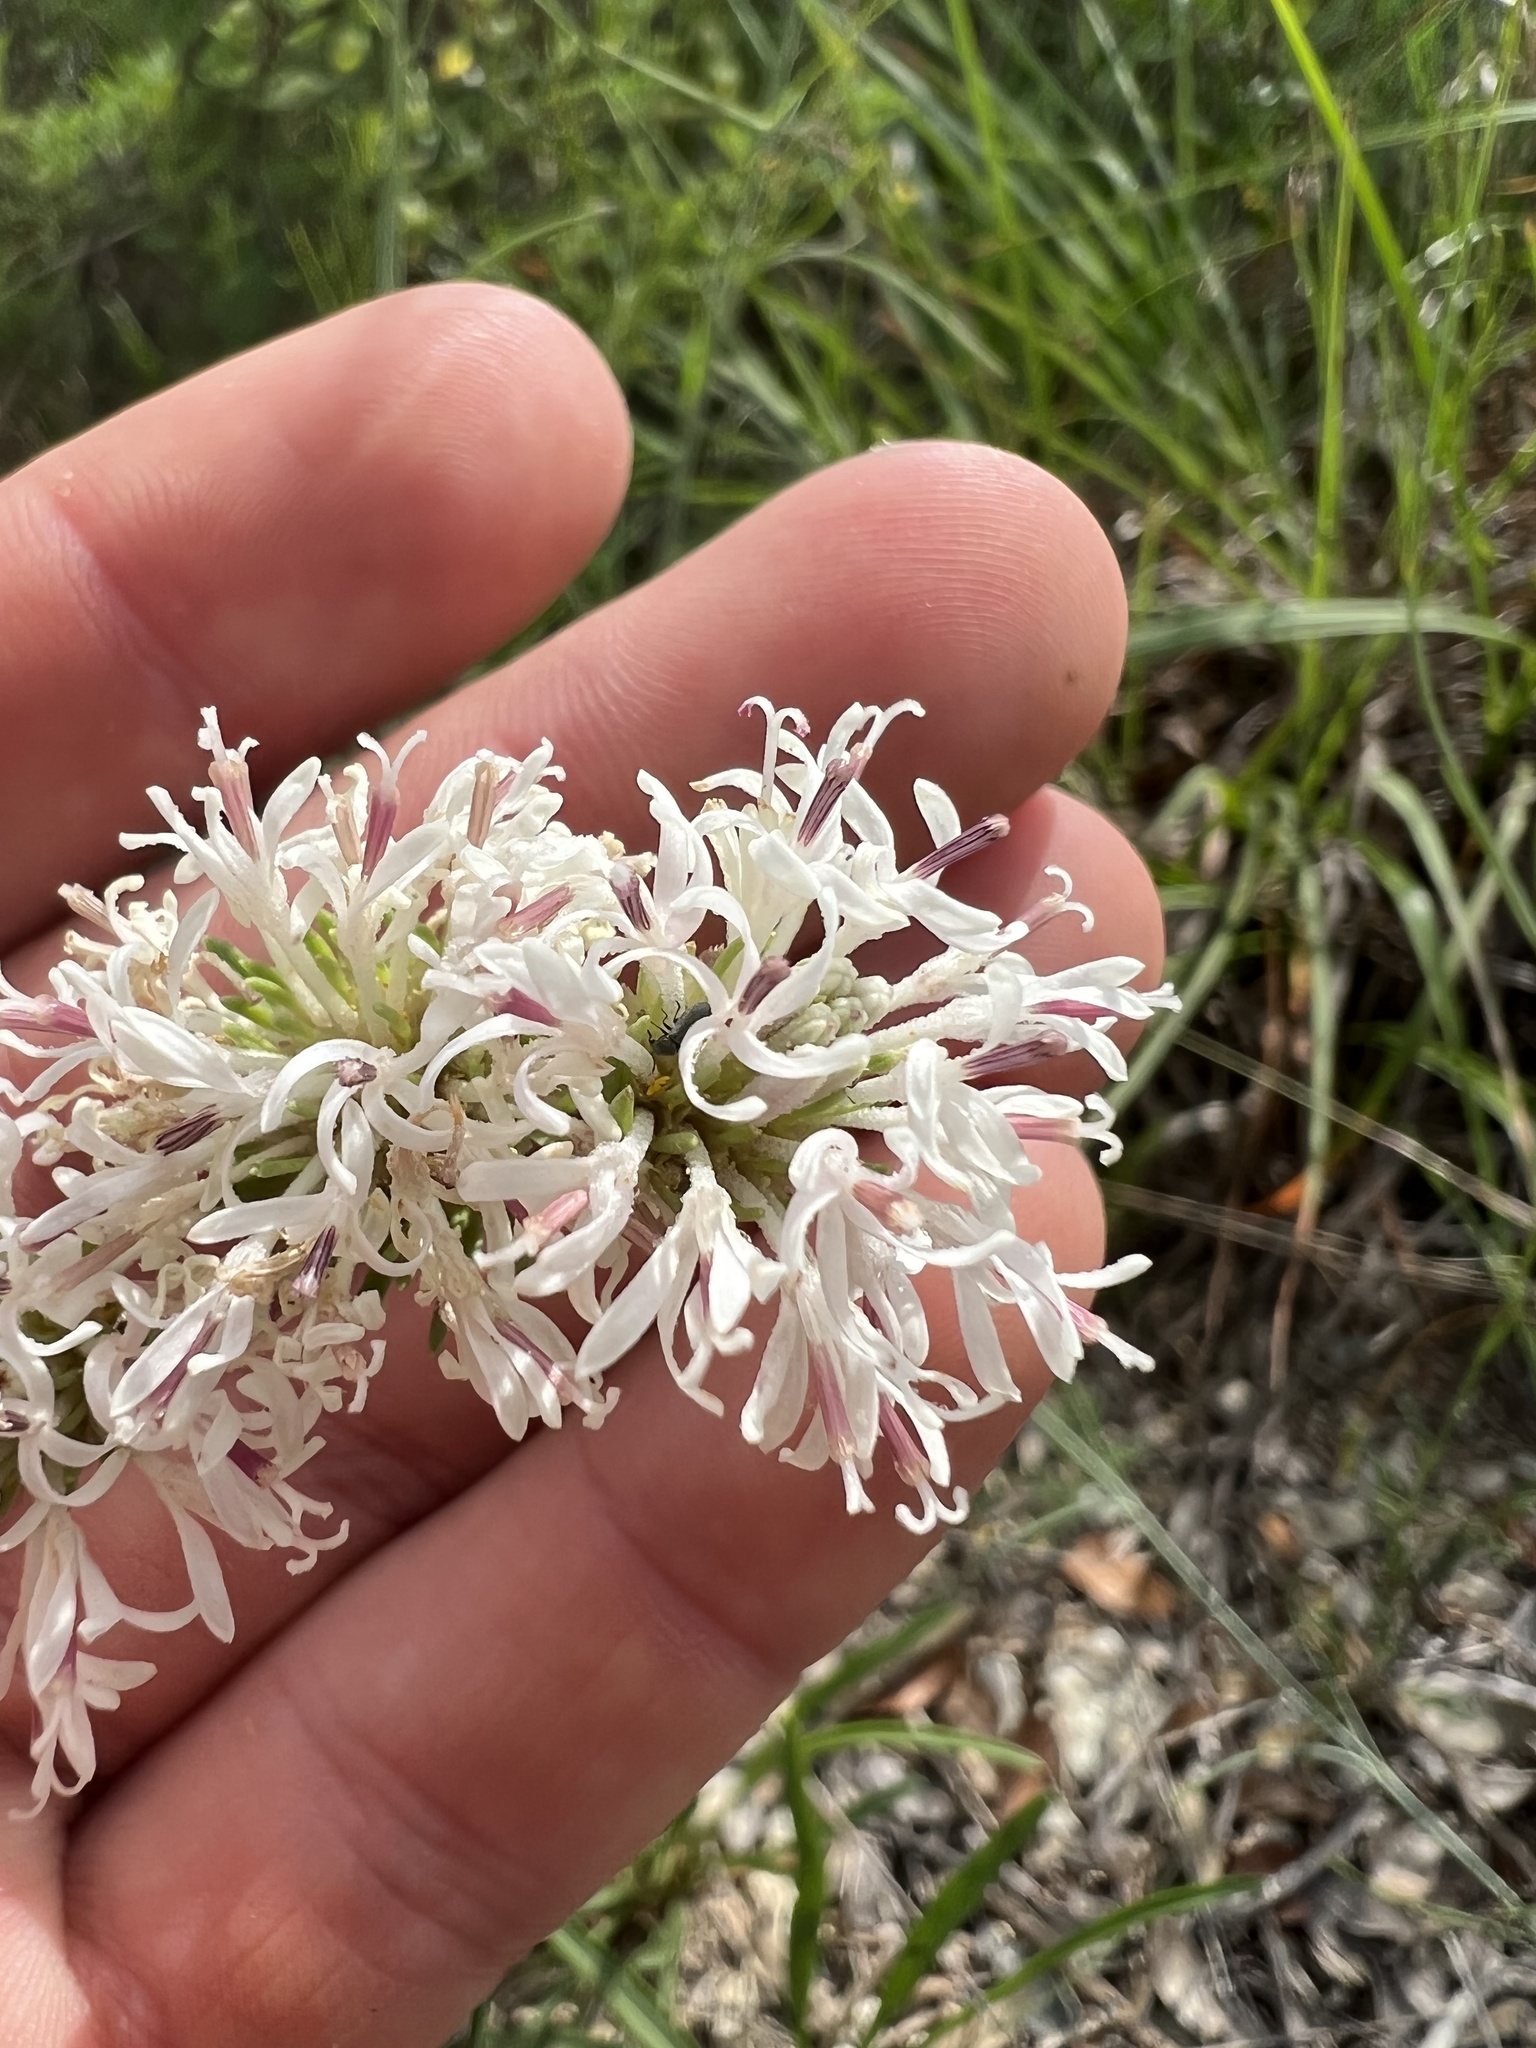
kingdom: Plantae
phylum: Tracheophyta
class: Magnoliopsida
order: Asterales
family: Asteraceae
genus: Marshallia
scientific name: Marshallia caespitosa
